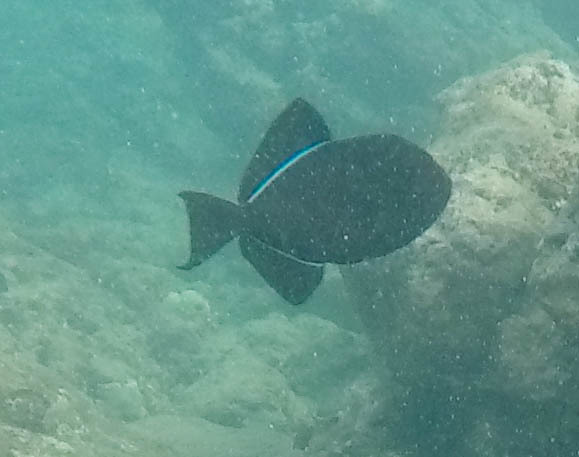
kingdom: Animalia
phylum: Chordata
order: Tetraodontiformes
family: Balistidae
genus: Melichthys
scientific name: Melichthys niger
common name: Black durgon
